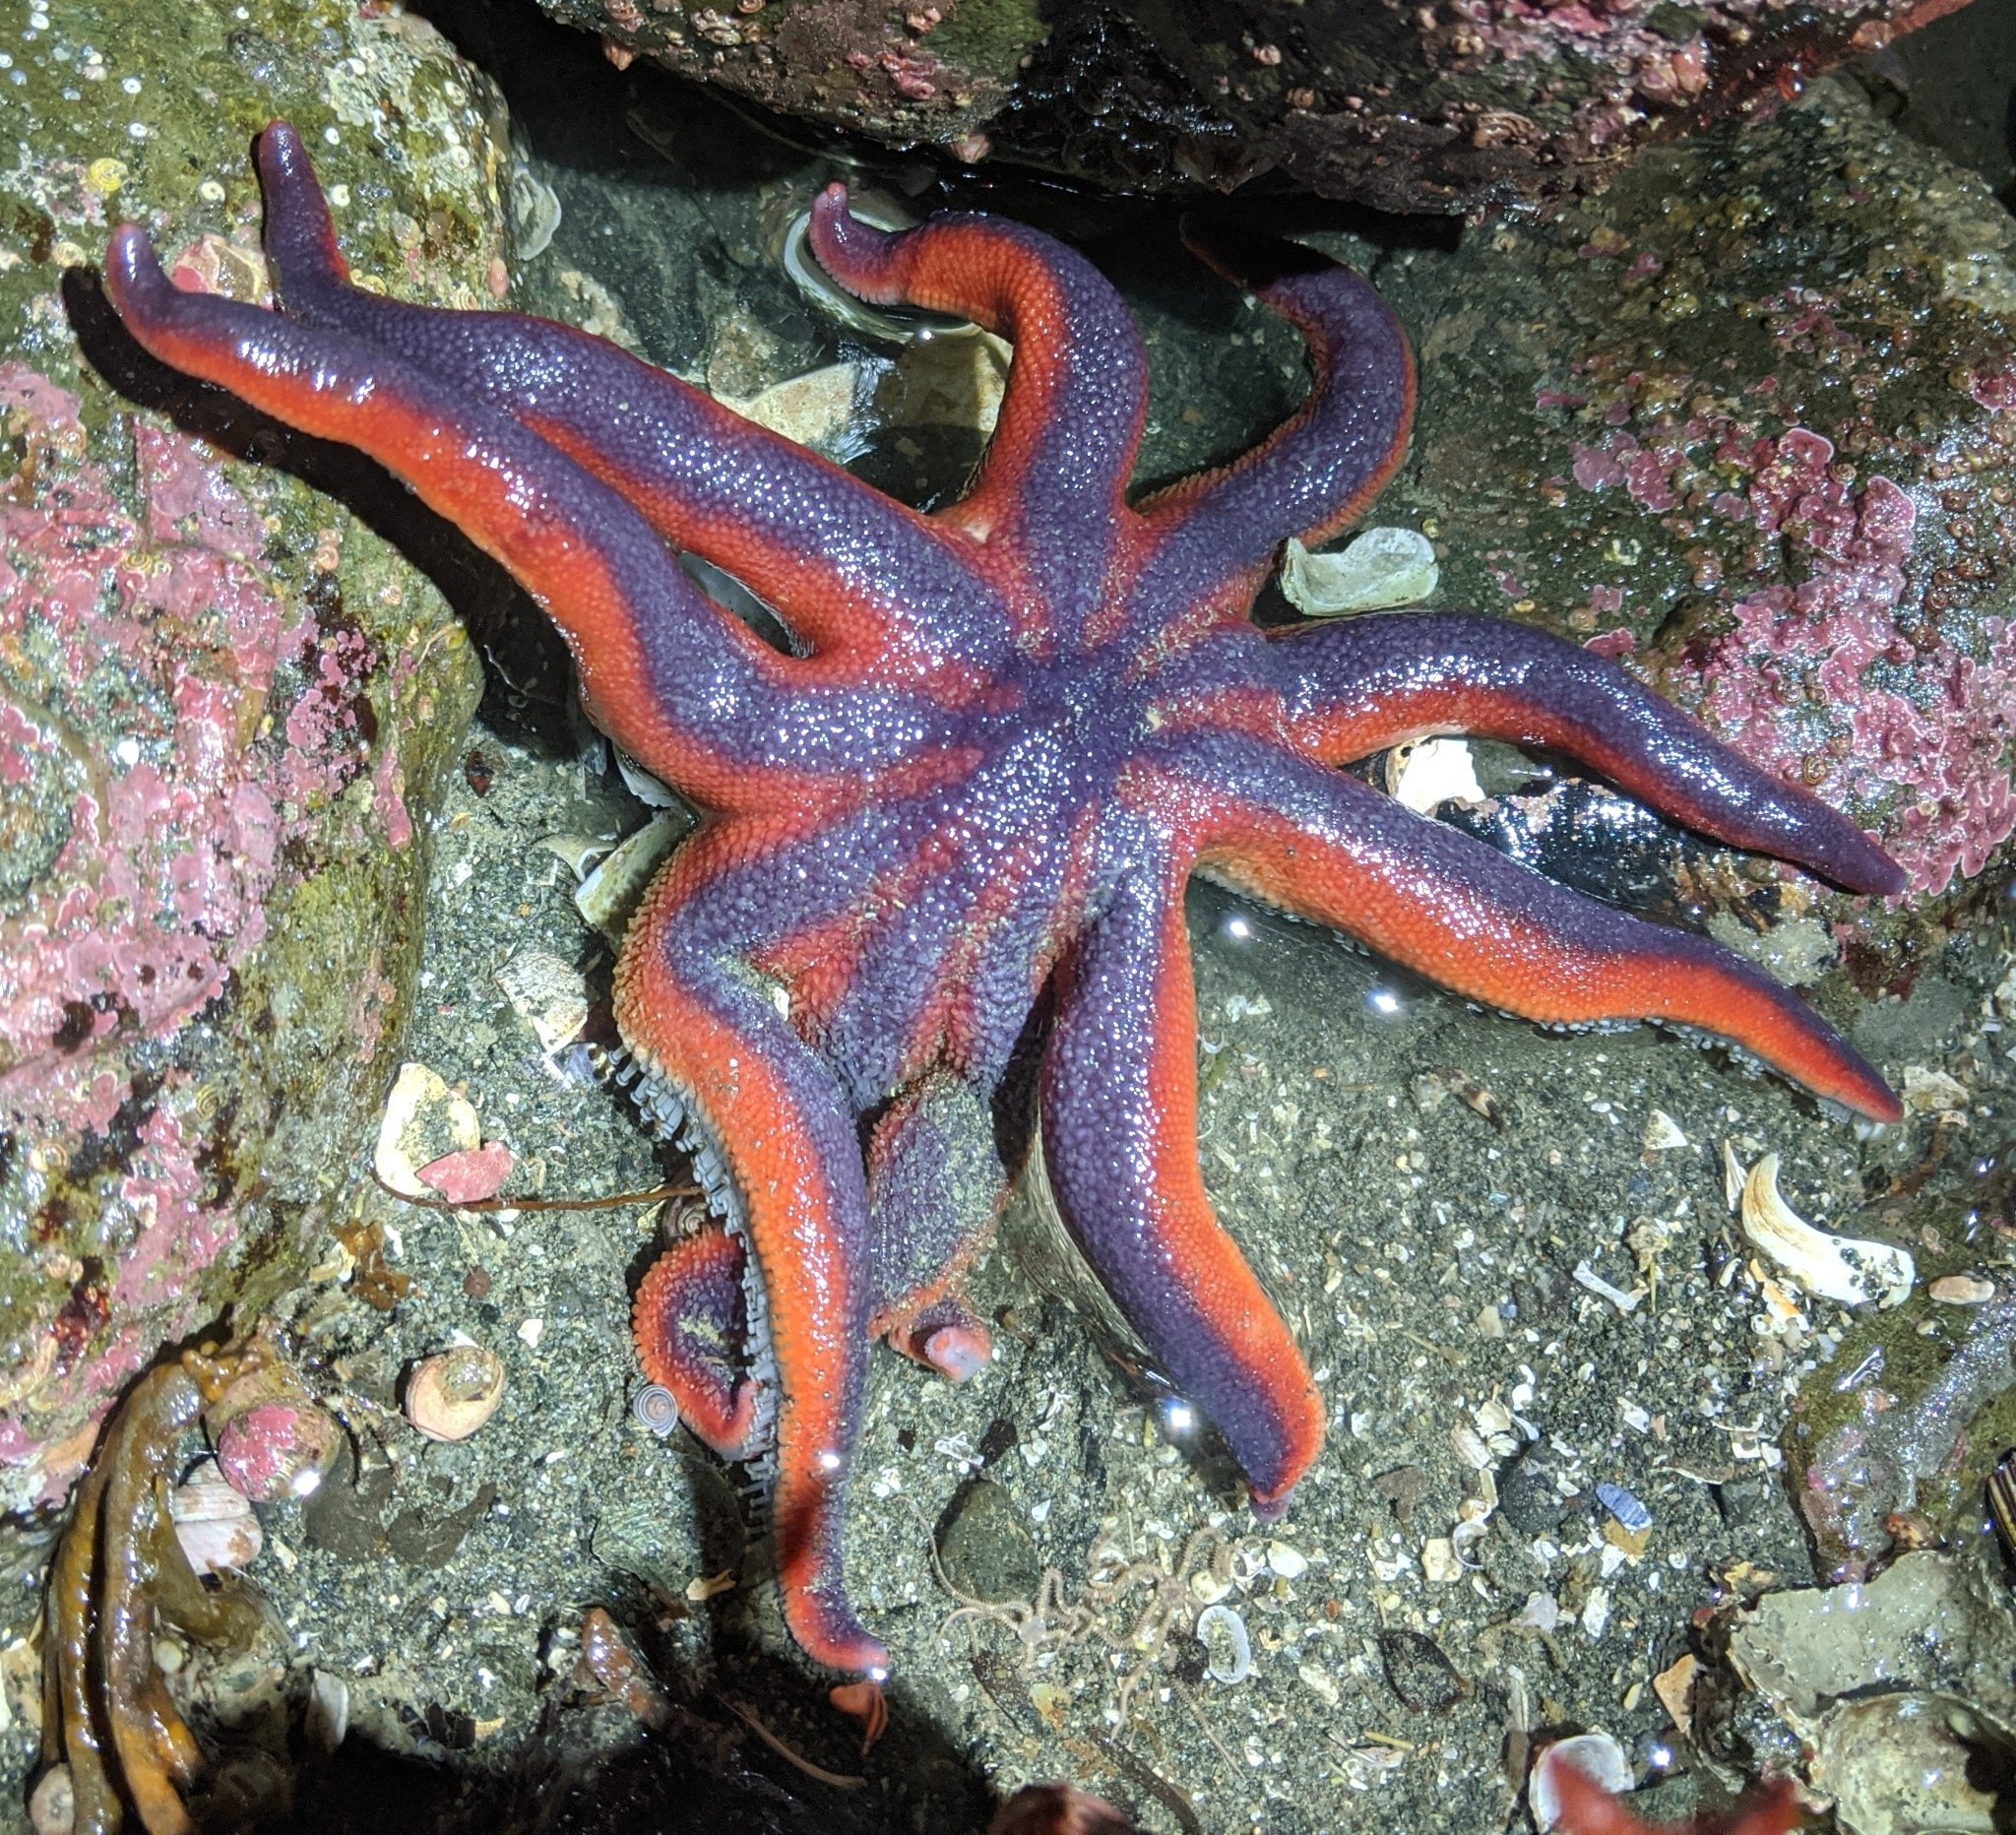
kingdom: Animalia
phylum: Echinodermata
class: Asteroidea
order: Valvatida
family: Solasteridae
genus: Solaster
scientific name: Solaster stimpsoni
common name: Orange sun star
